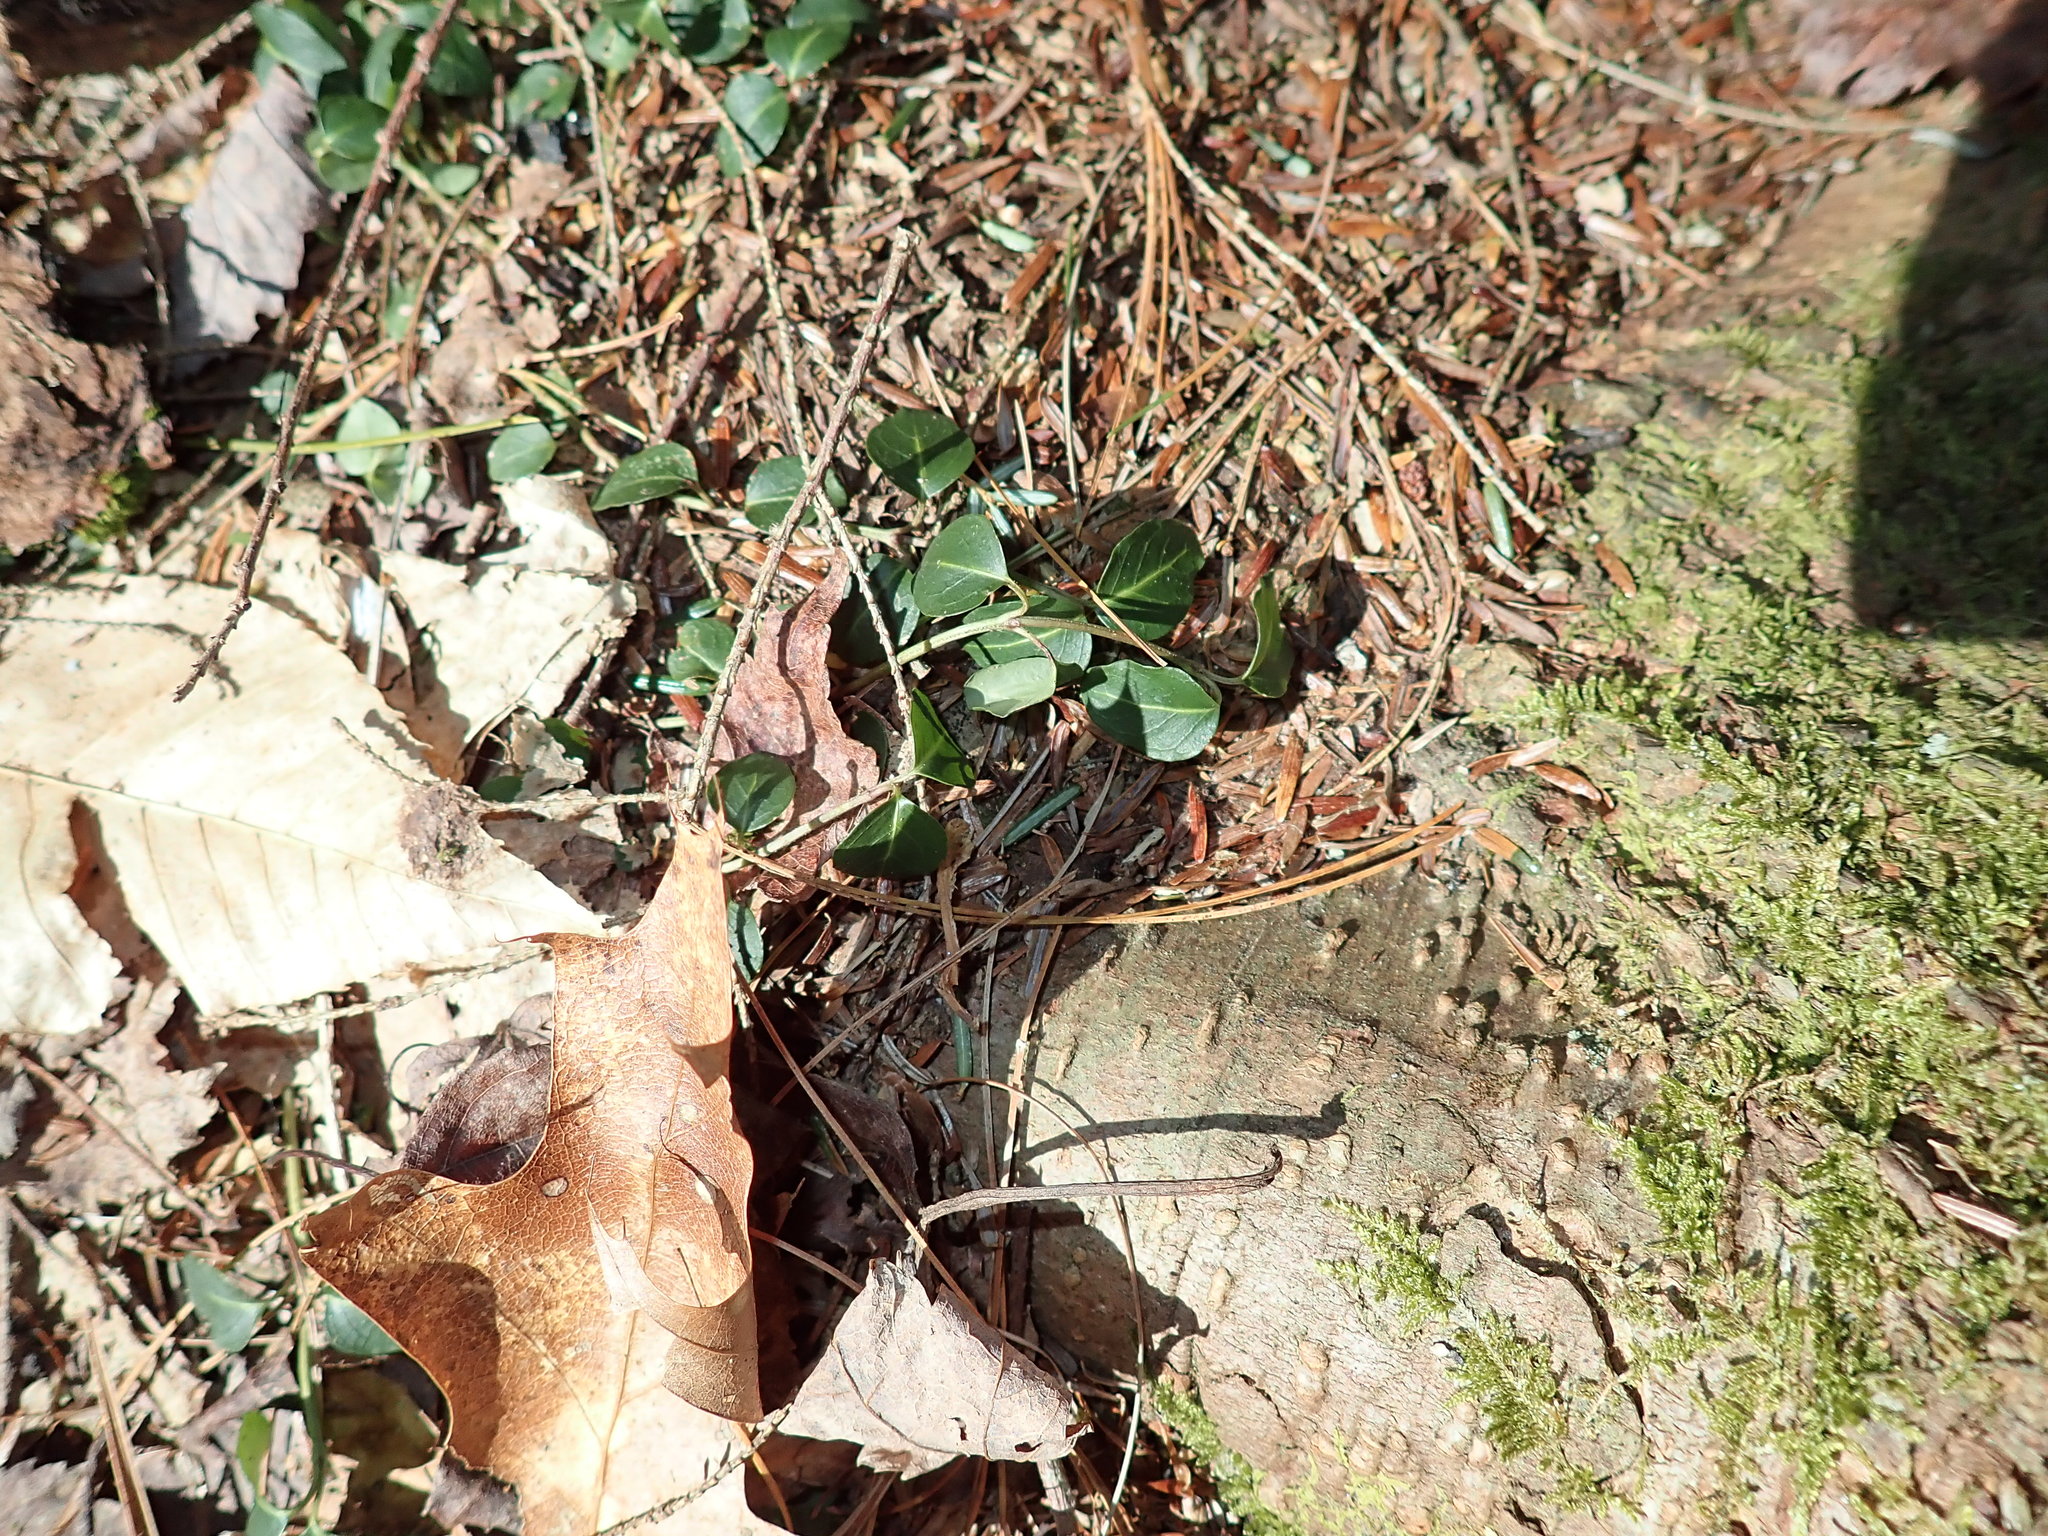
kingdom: Plantae
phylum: Tracheophyta
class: Magnoliopsida
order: Gentianales
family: Rubiaceae
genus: Mitchella
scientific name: Mitchella repens
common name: Partridge-berry
